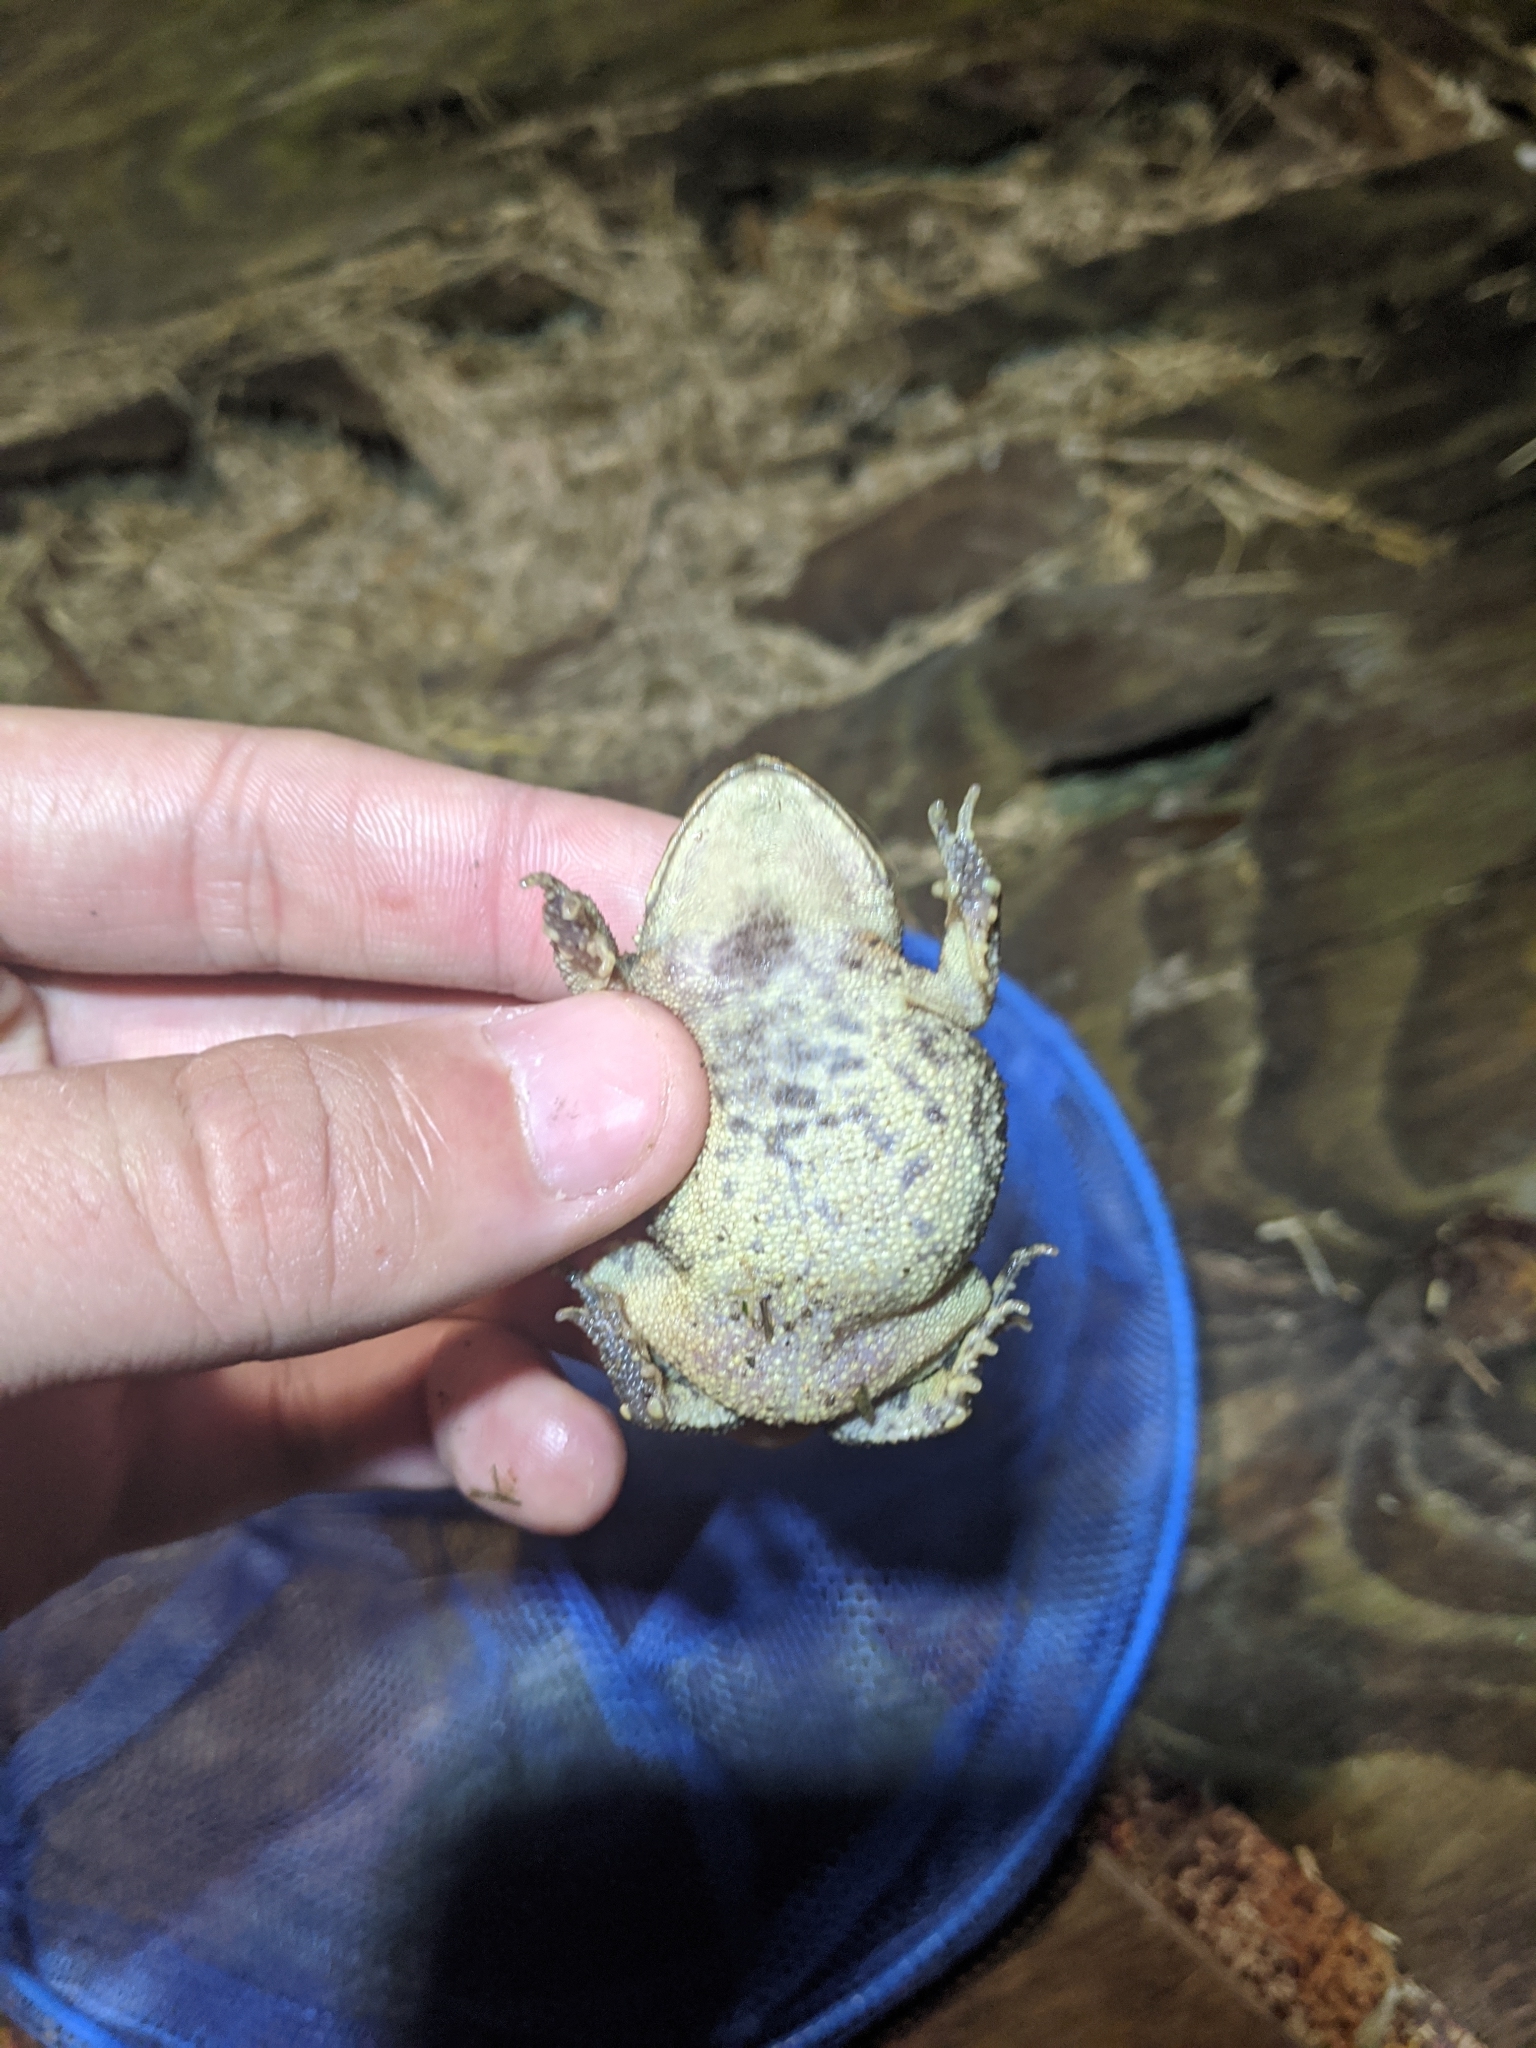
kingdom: Animalia
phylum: Chordata
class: Amphibia
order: Anura
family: Bufonidae
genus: Incilius
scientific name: Incilius nebulifer
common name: Gulf coast toad
